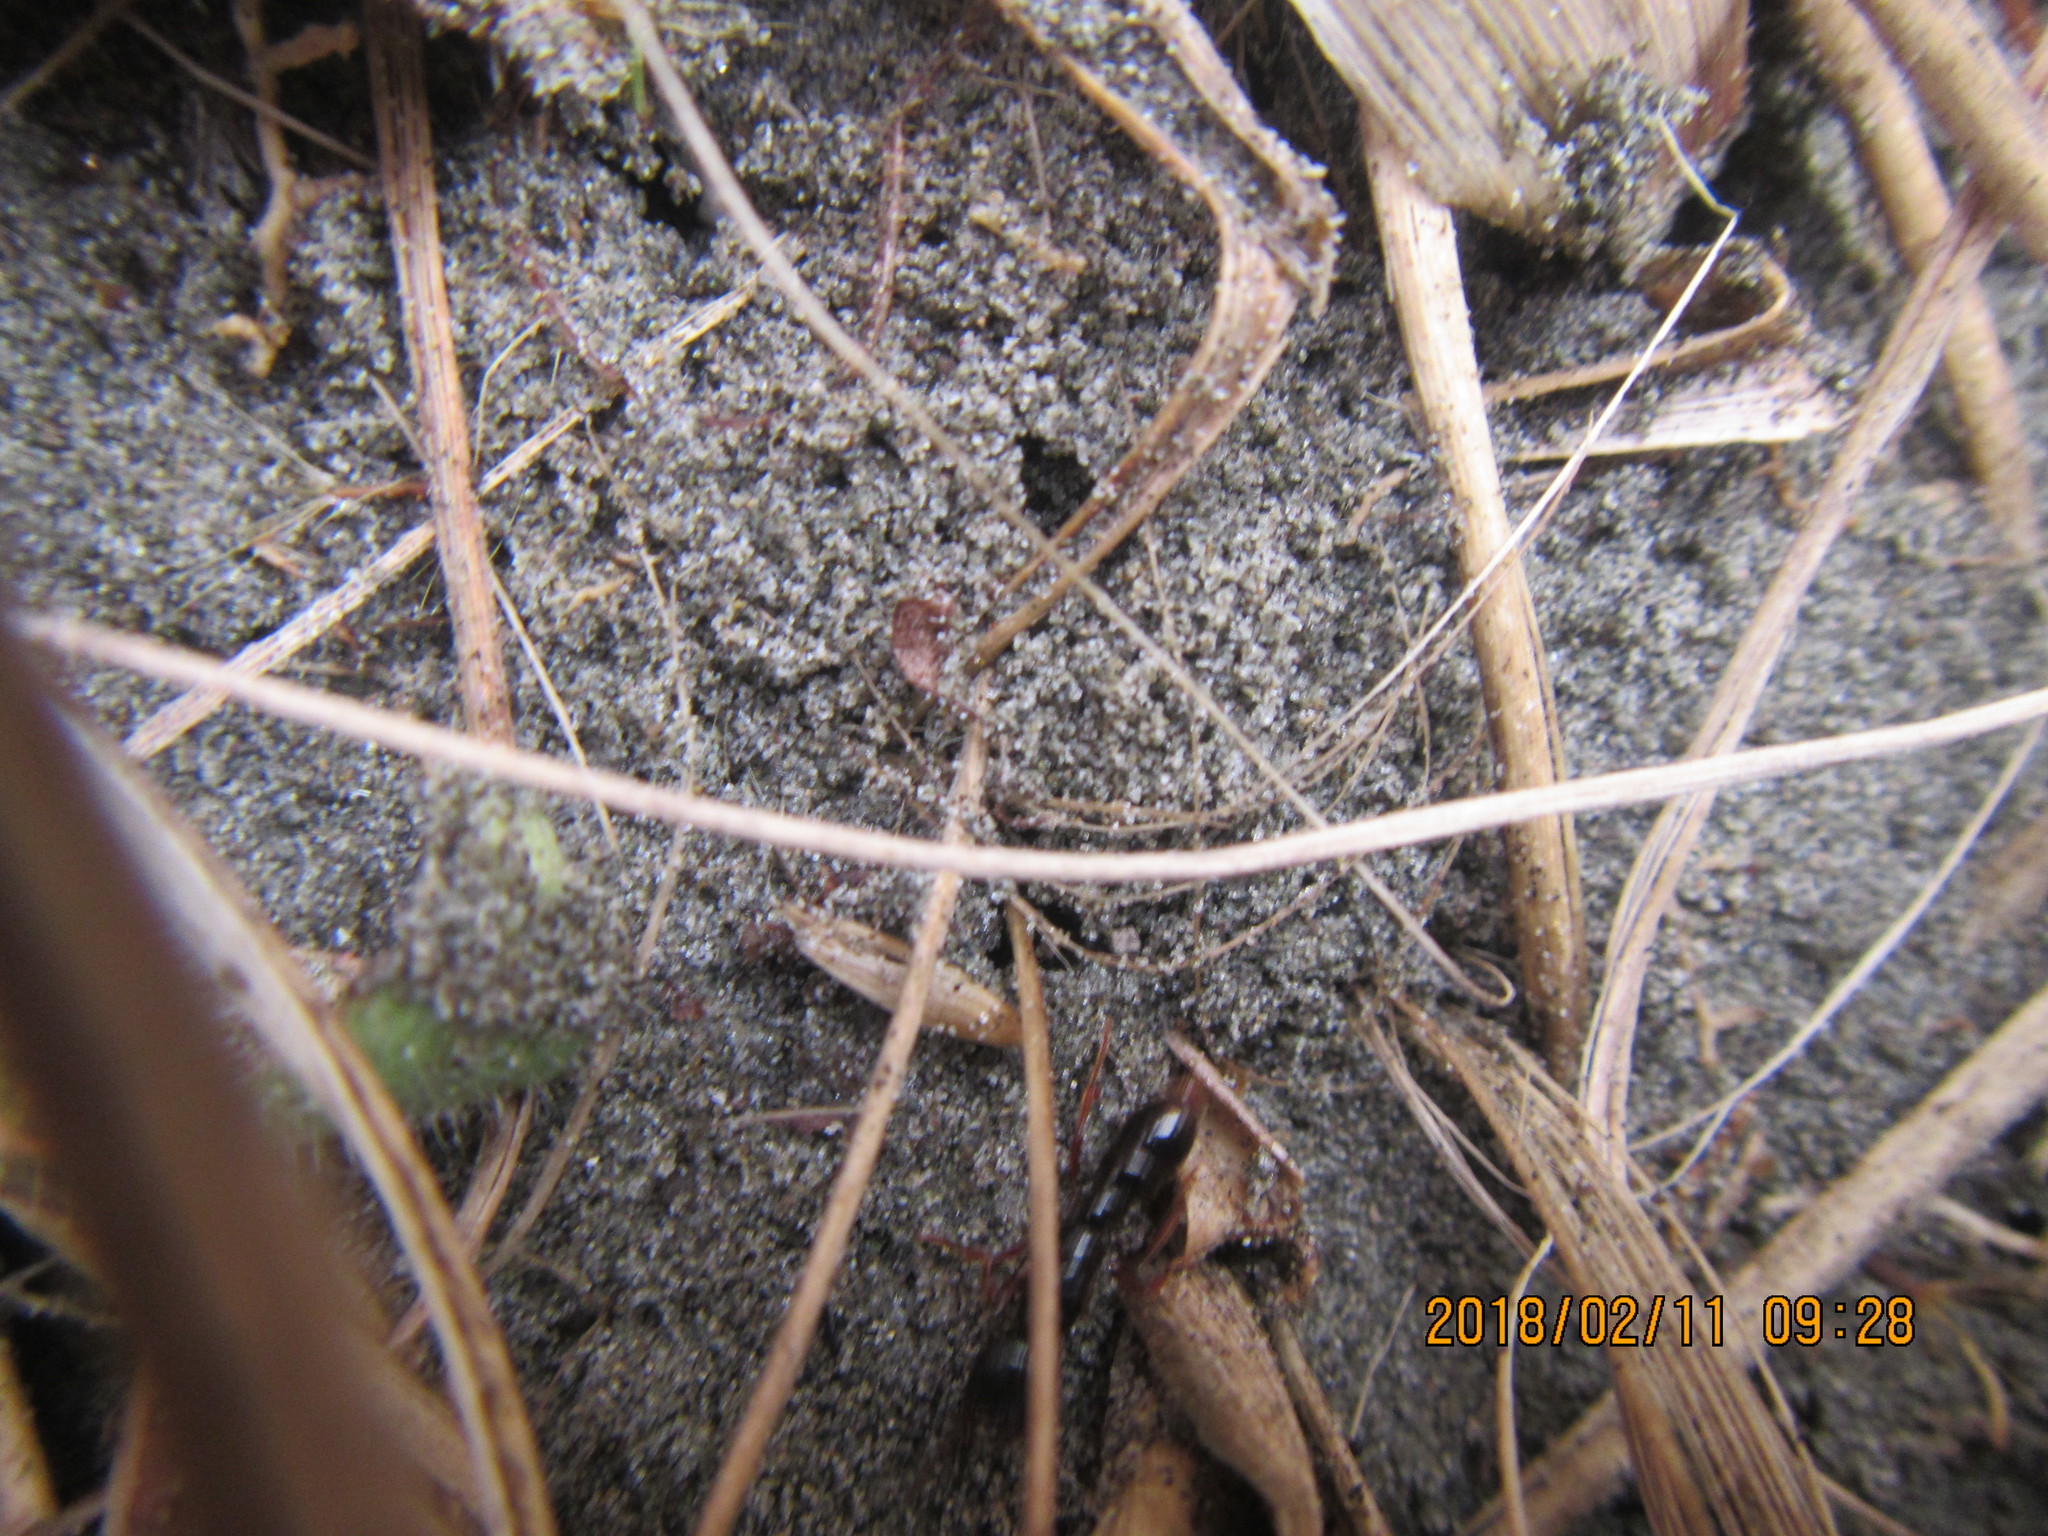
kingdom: Animalia
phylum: Arthropoda
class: Insecta
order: Hymenoptera
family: Formicidae
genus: Amblyopone
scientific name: Amblyopone australis
